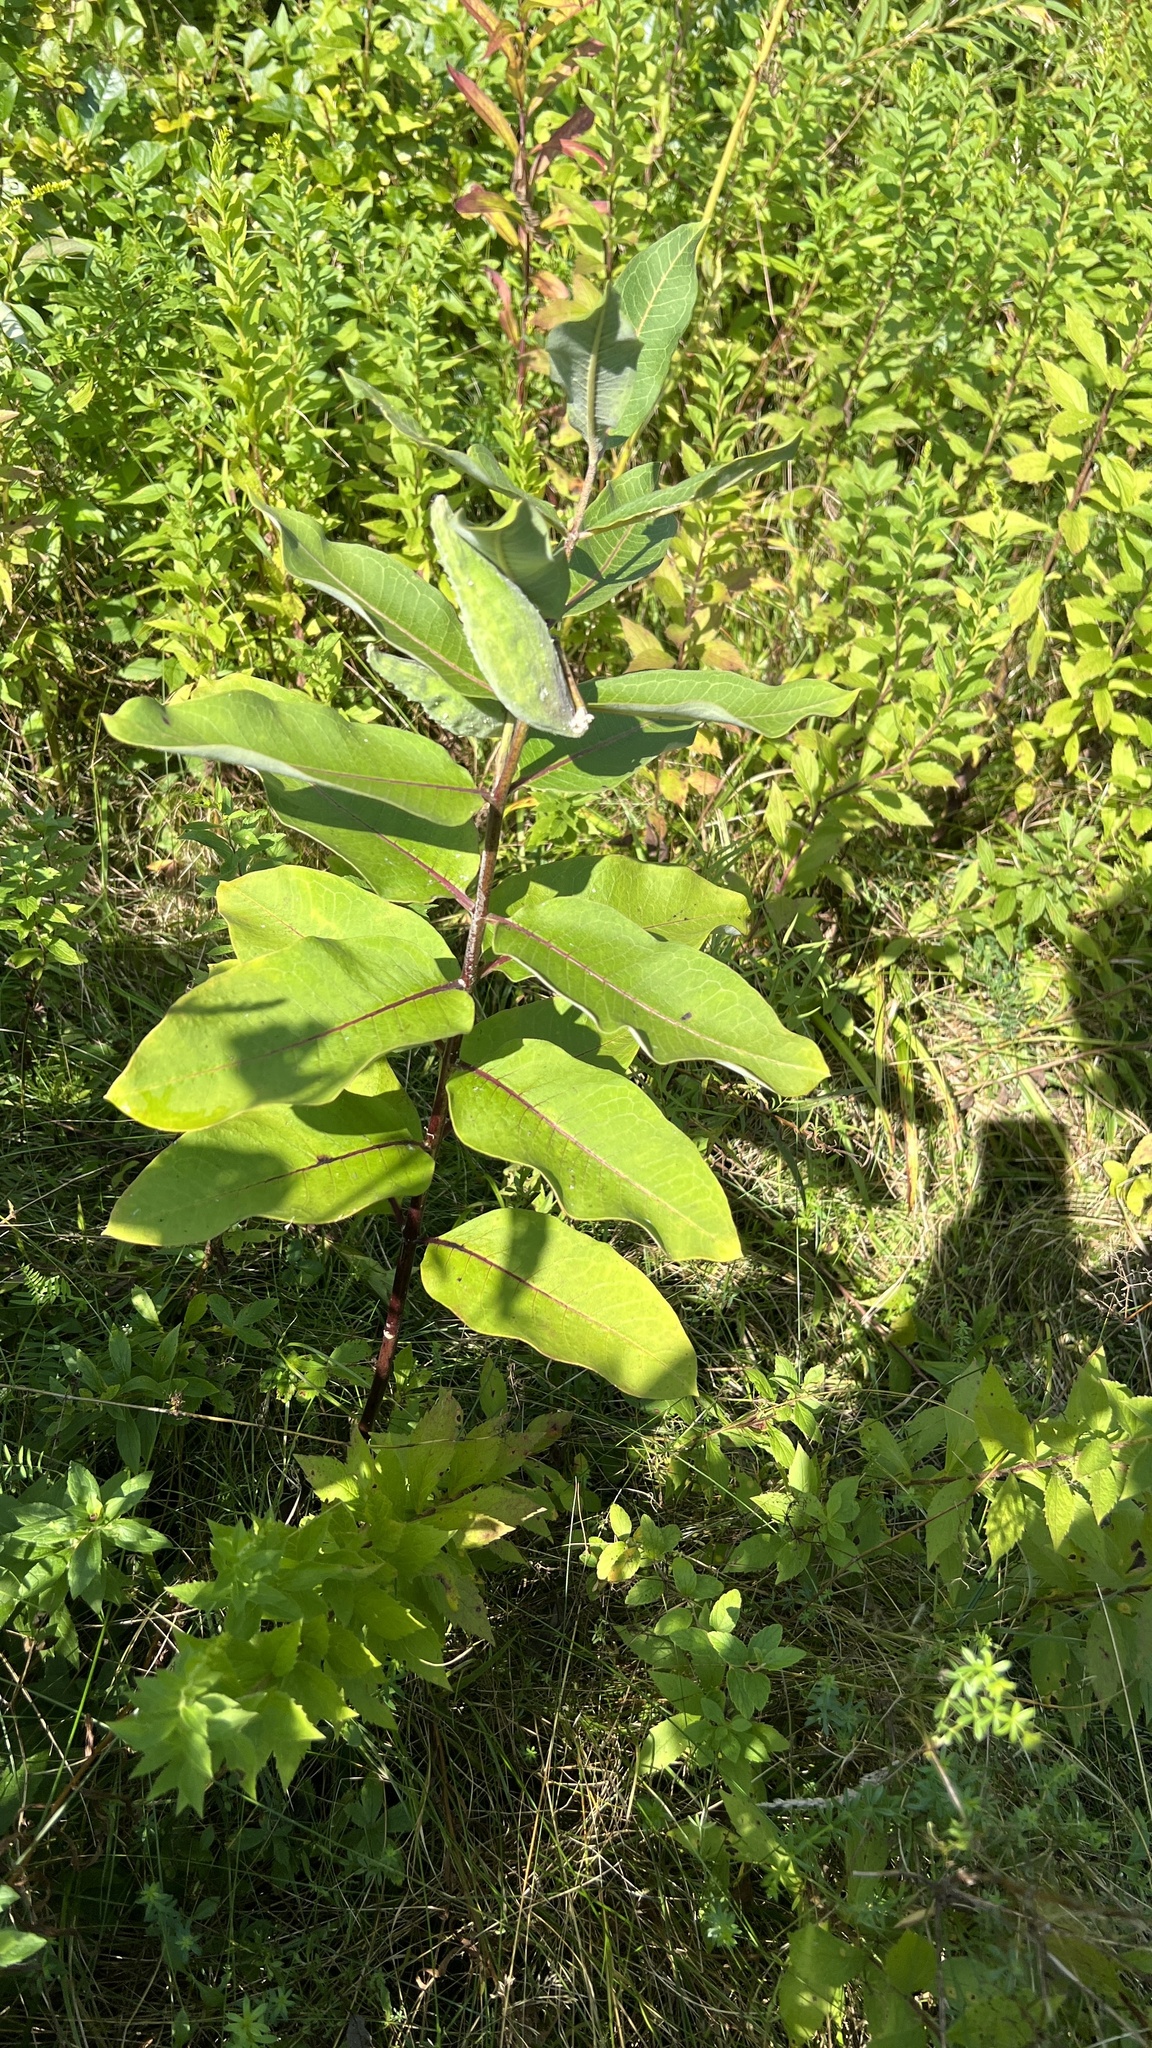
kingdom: Plantae
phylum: Tracheophyta
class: Magnoliopsida
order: Gentianales
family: Apocynaceae
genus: Asclepias
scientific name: Asclepias syriaca
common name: Common milkweed
